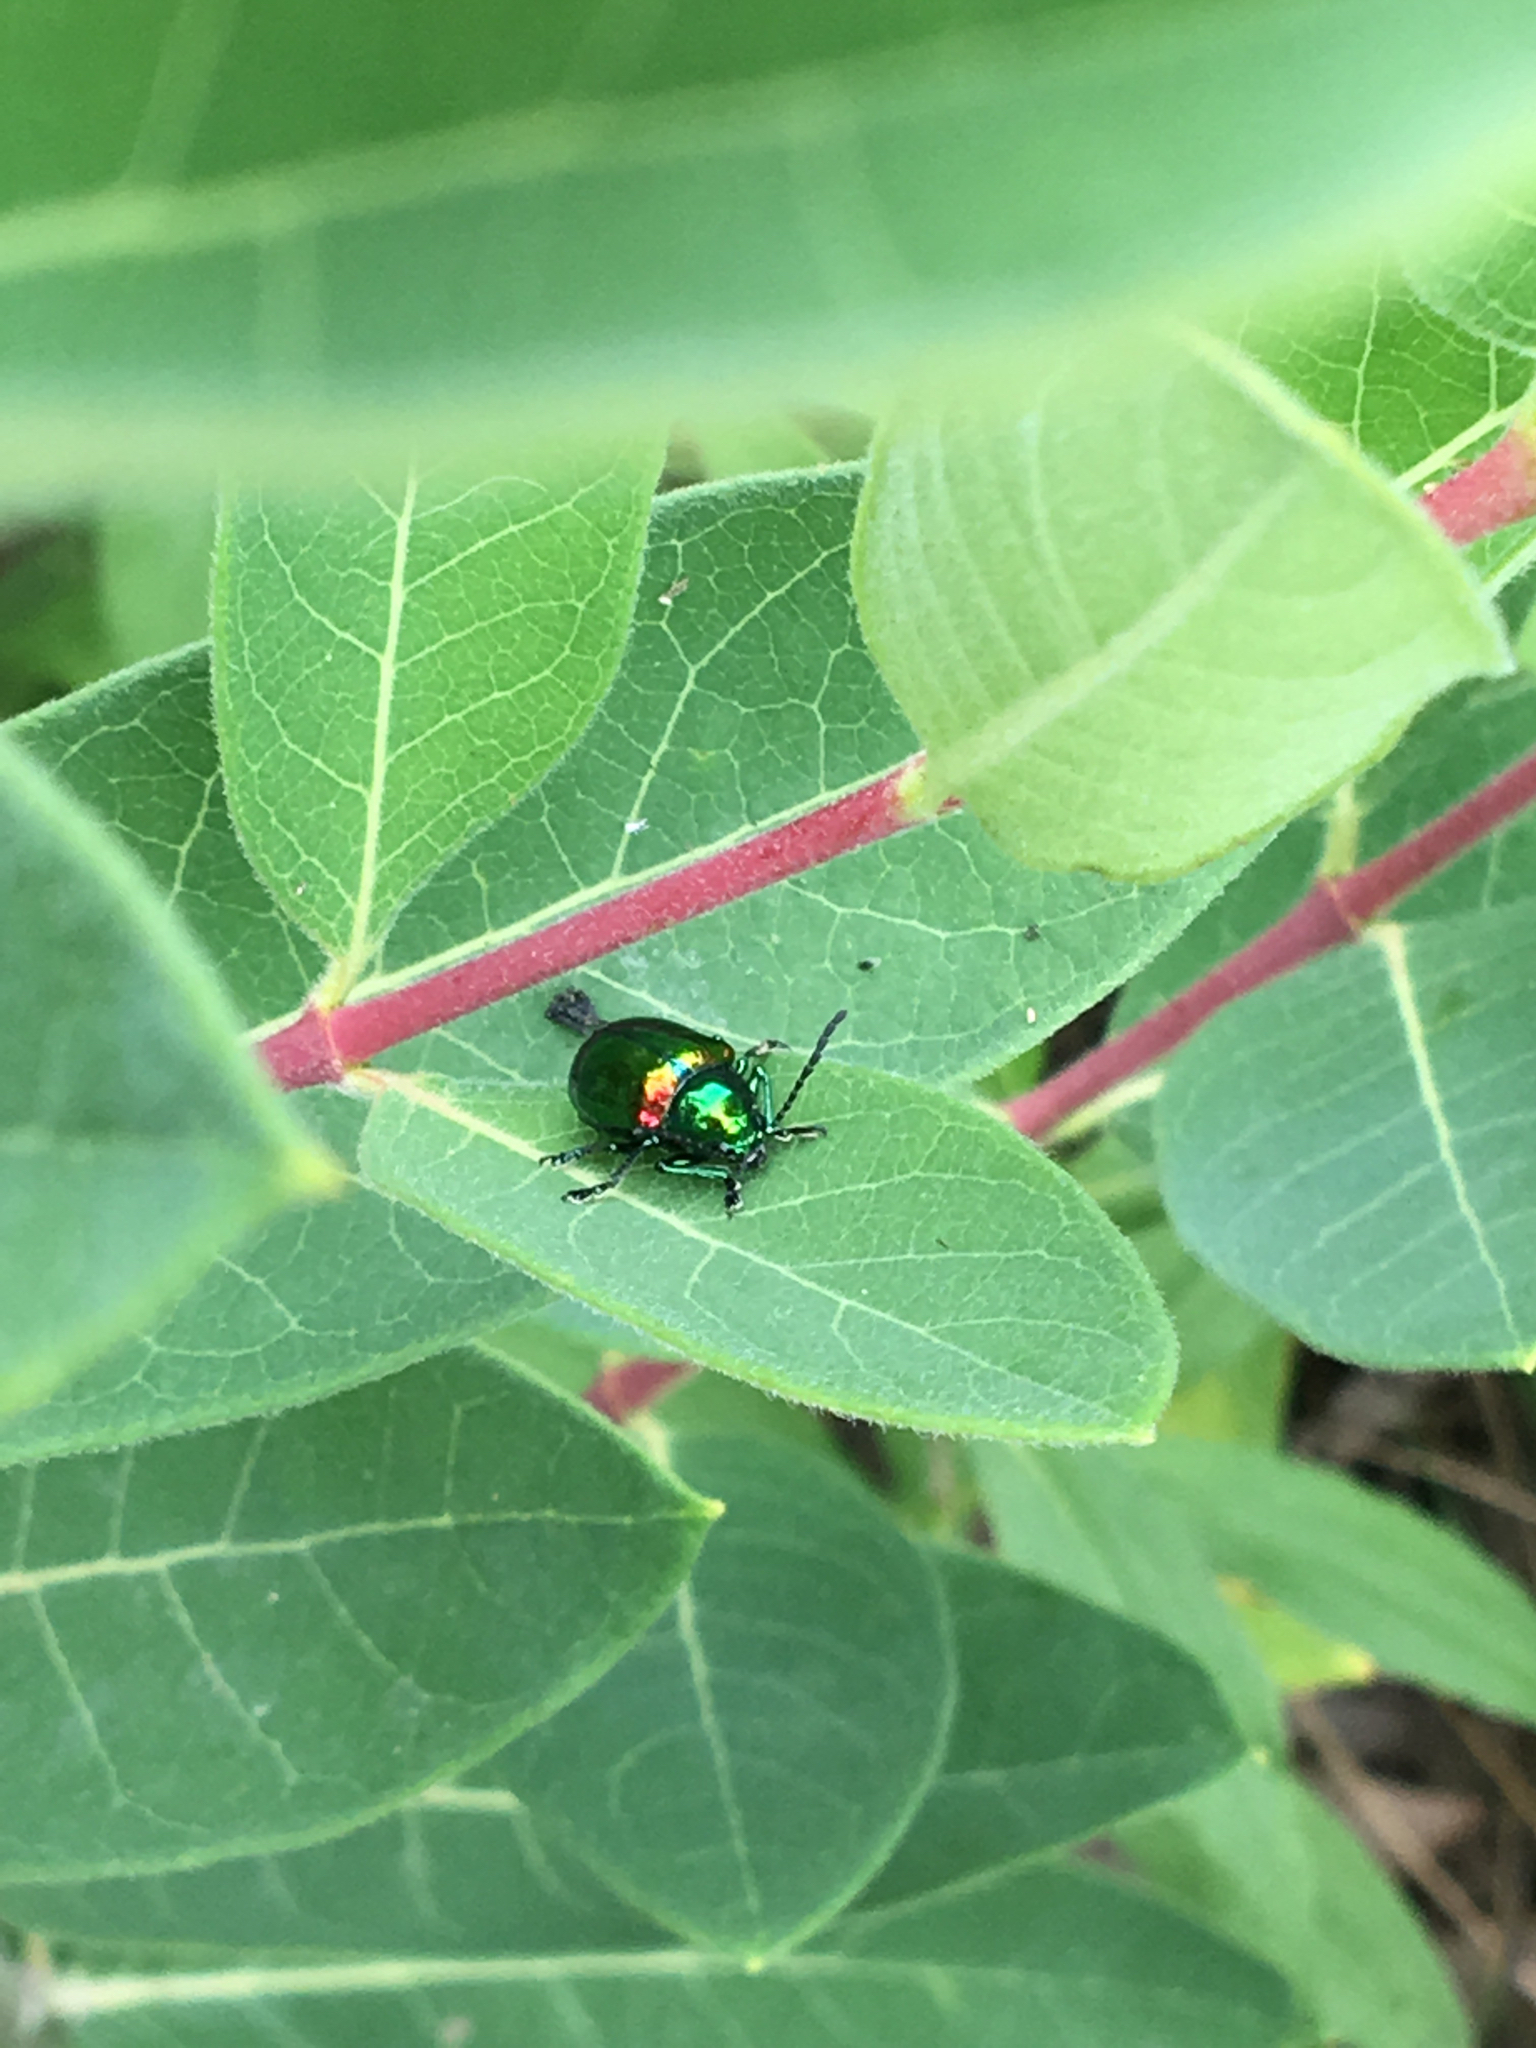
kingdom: Animalia
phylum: Arthropoda
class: Insecta
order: Coleoptera
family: Chrysomelidae
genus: Chrysochus
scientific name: Chrysochus auratus
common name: Dogbane leaf beetle
